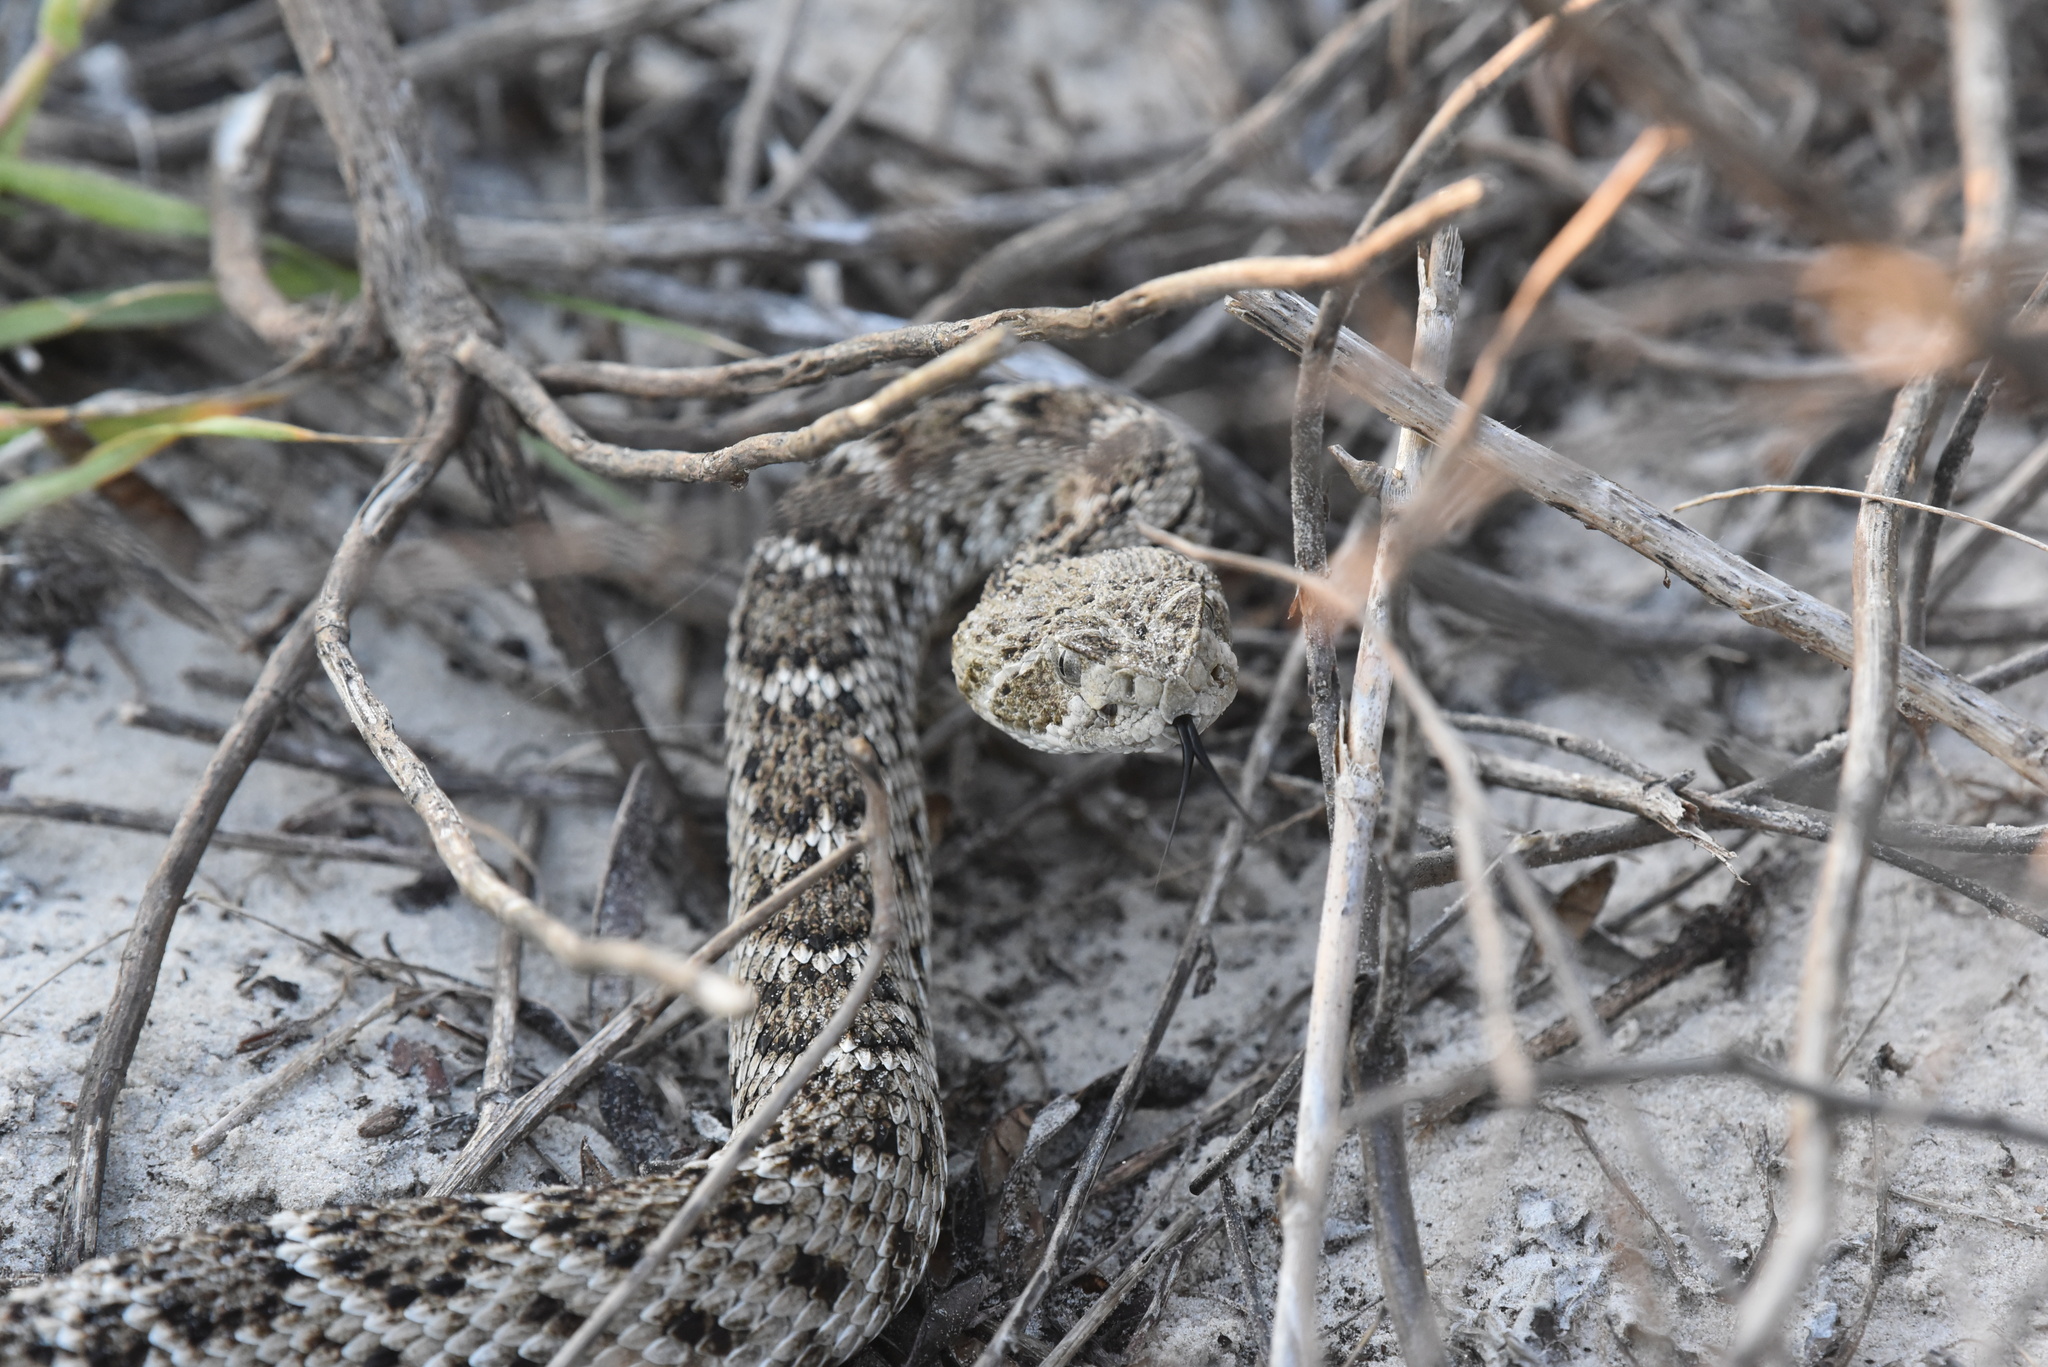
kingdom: Animalia
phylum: Chordata
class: Squamata
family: Viperidae
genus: Crotalus
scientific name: Crotalus atrox
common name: Western diamond-backed rattlesnake
